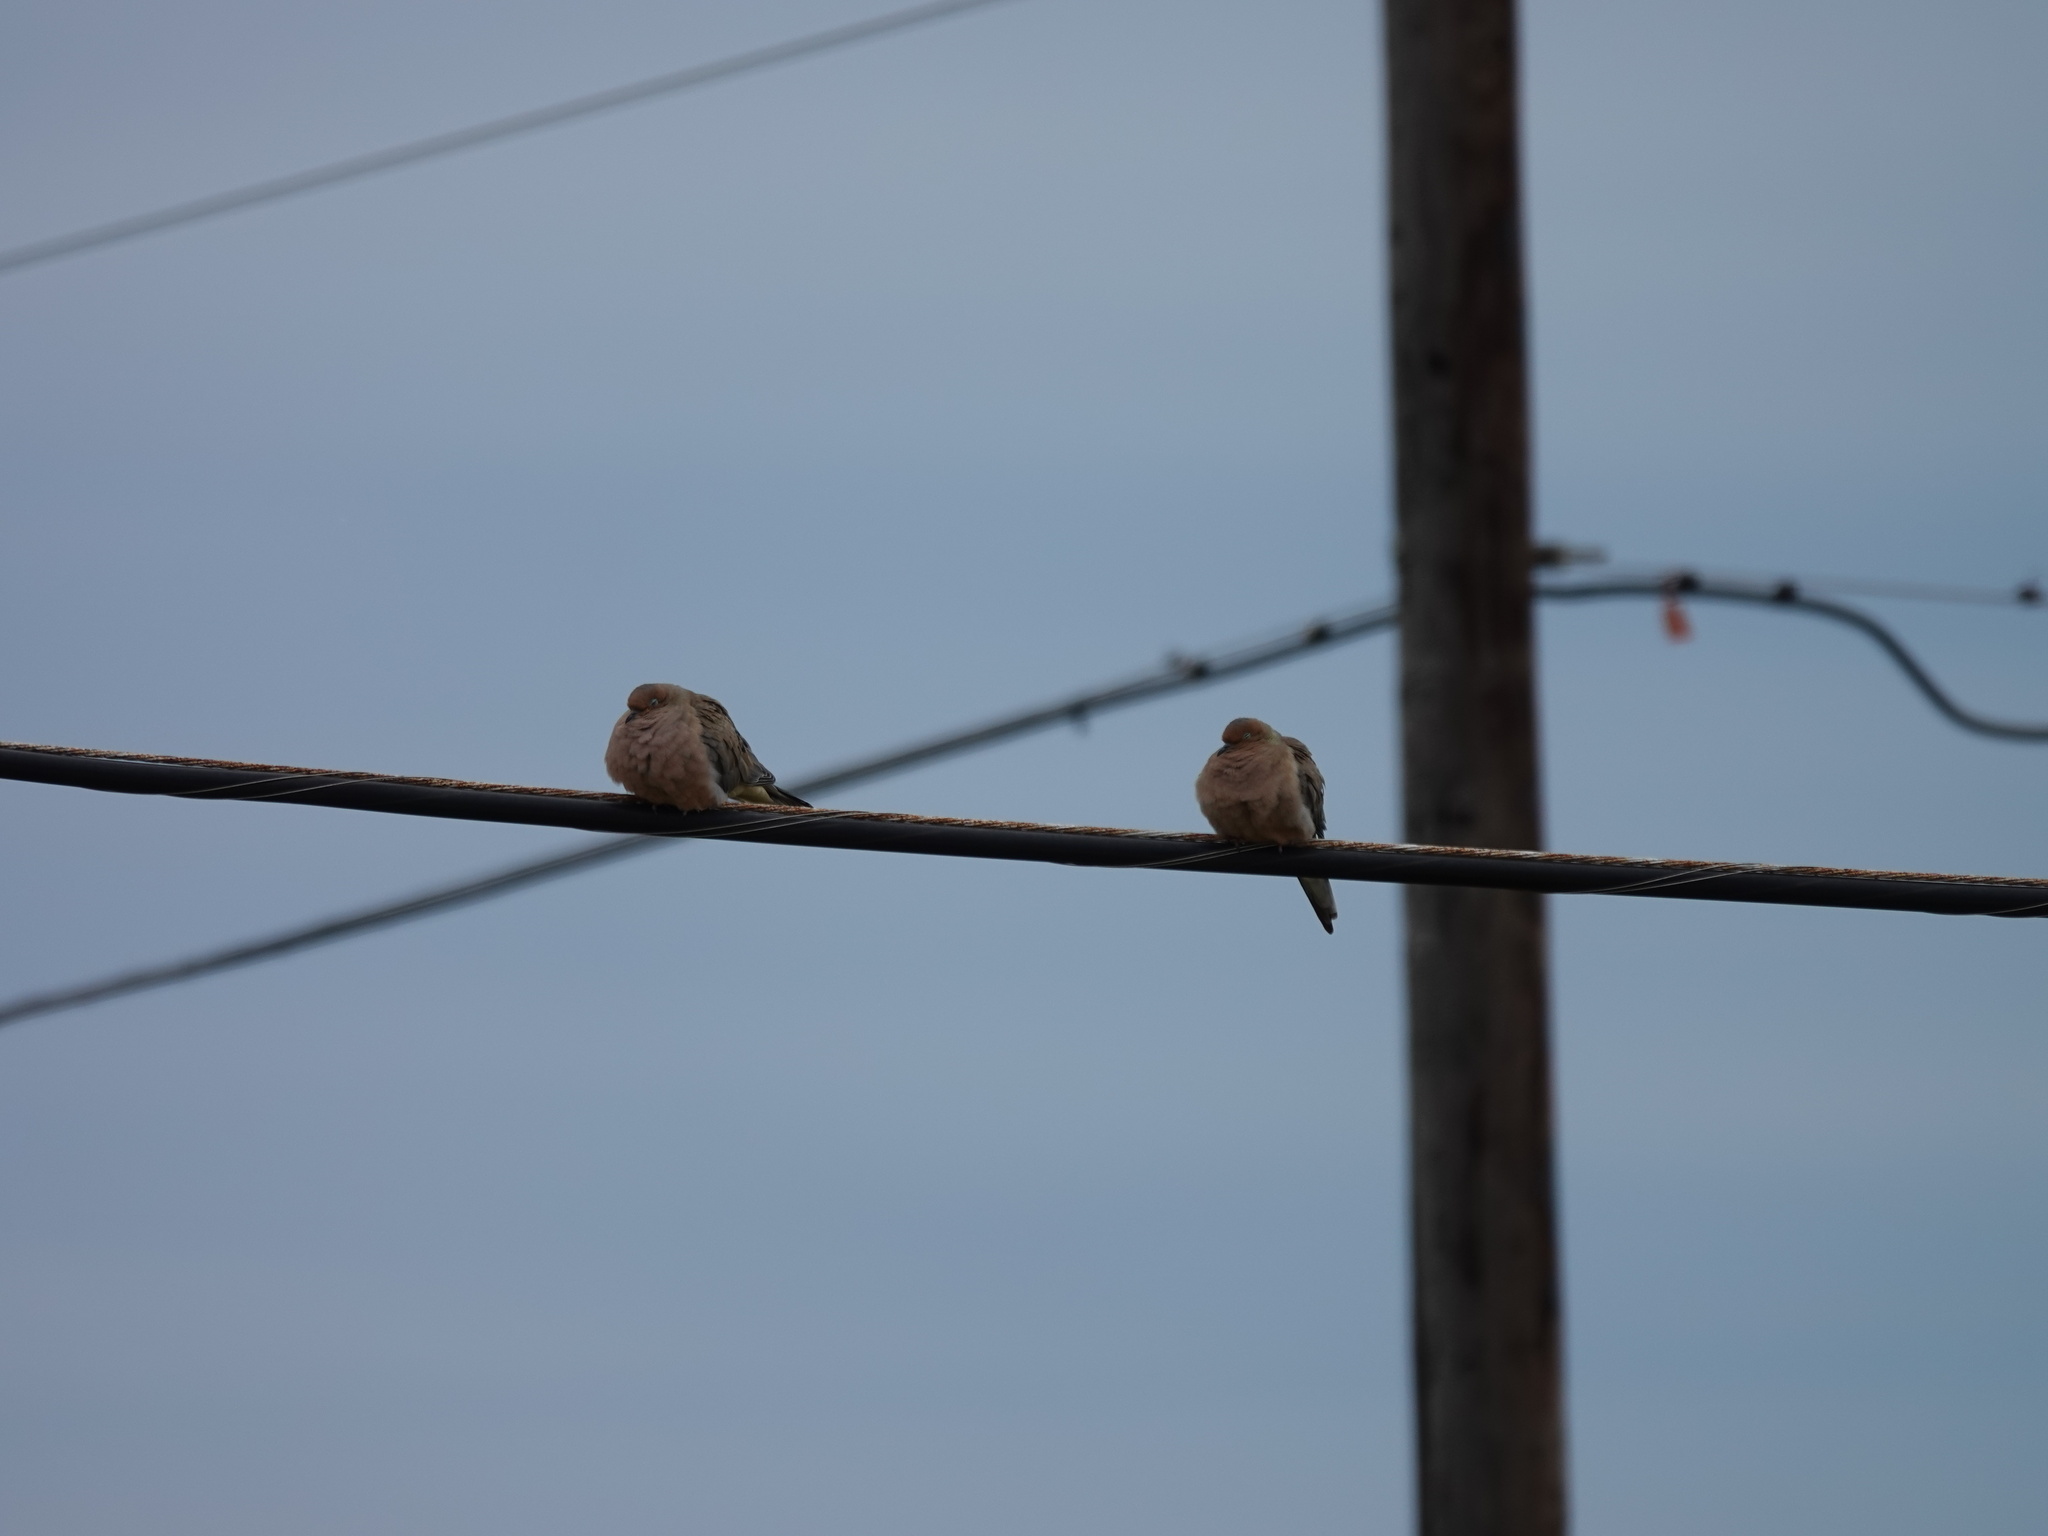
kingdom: Animalia
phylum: Chordata
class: Aves
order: Columbiformes
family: Columbidae
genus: Zenaida
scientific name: Zenaida macroura
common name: Mourning dove
